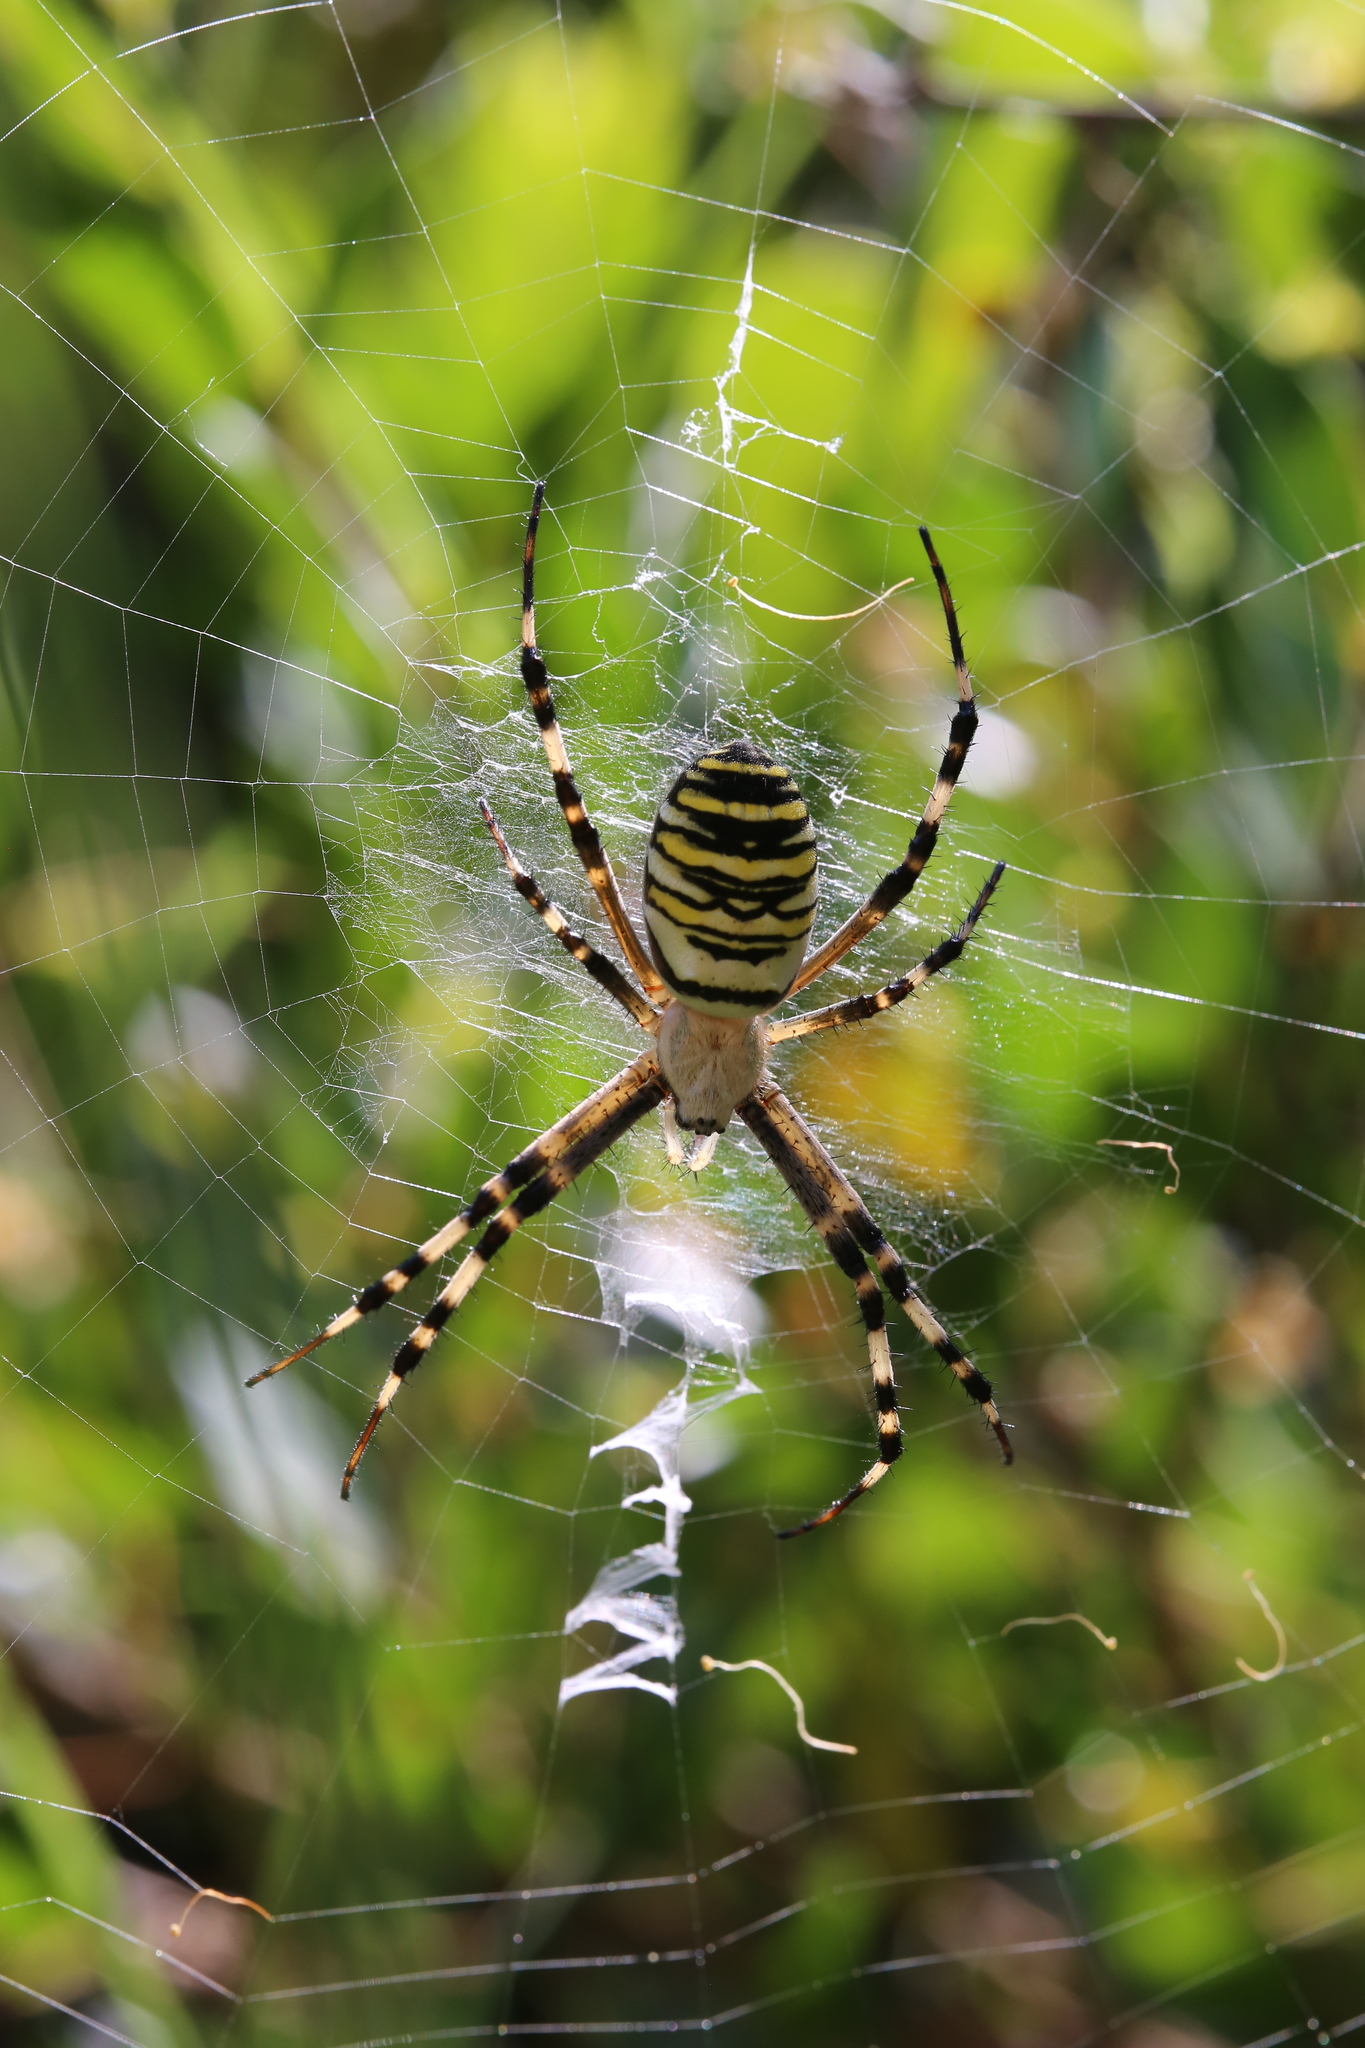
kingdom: Animalia
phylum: Arthropoda
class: Arachnida
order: Araneae
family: Araneidae
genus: Argiope
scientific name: Argiope bruennichi
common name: Wasp spider
